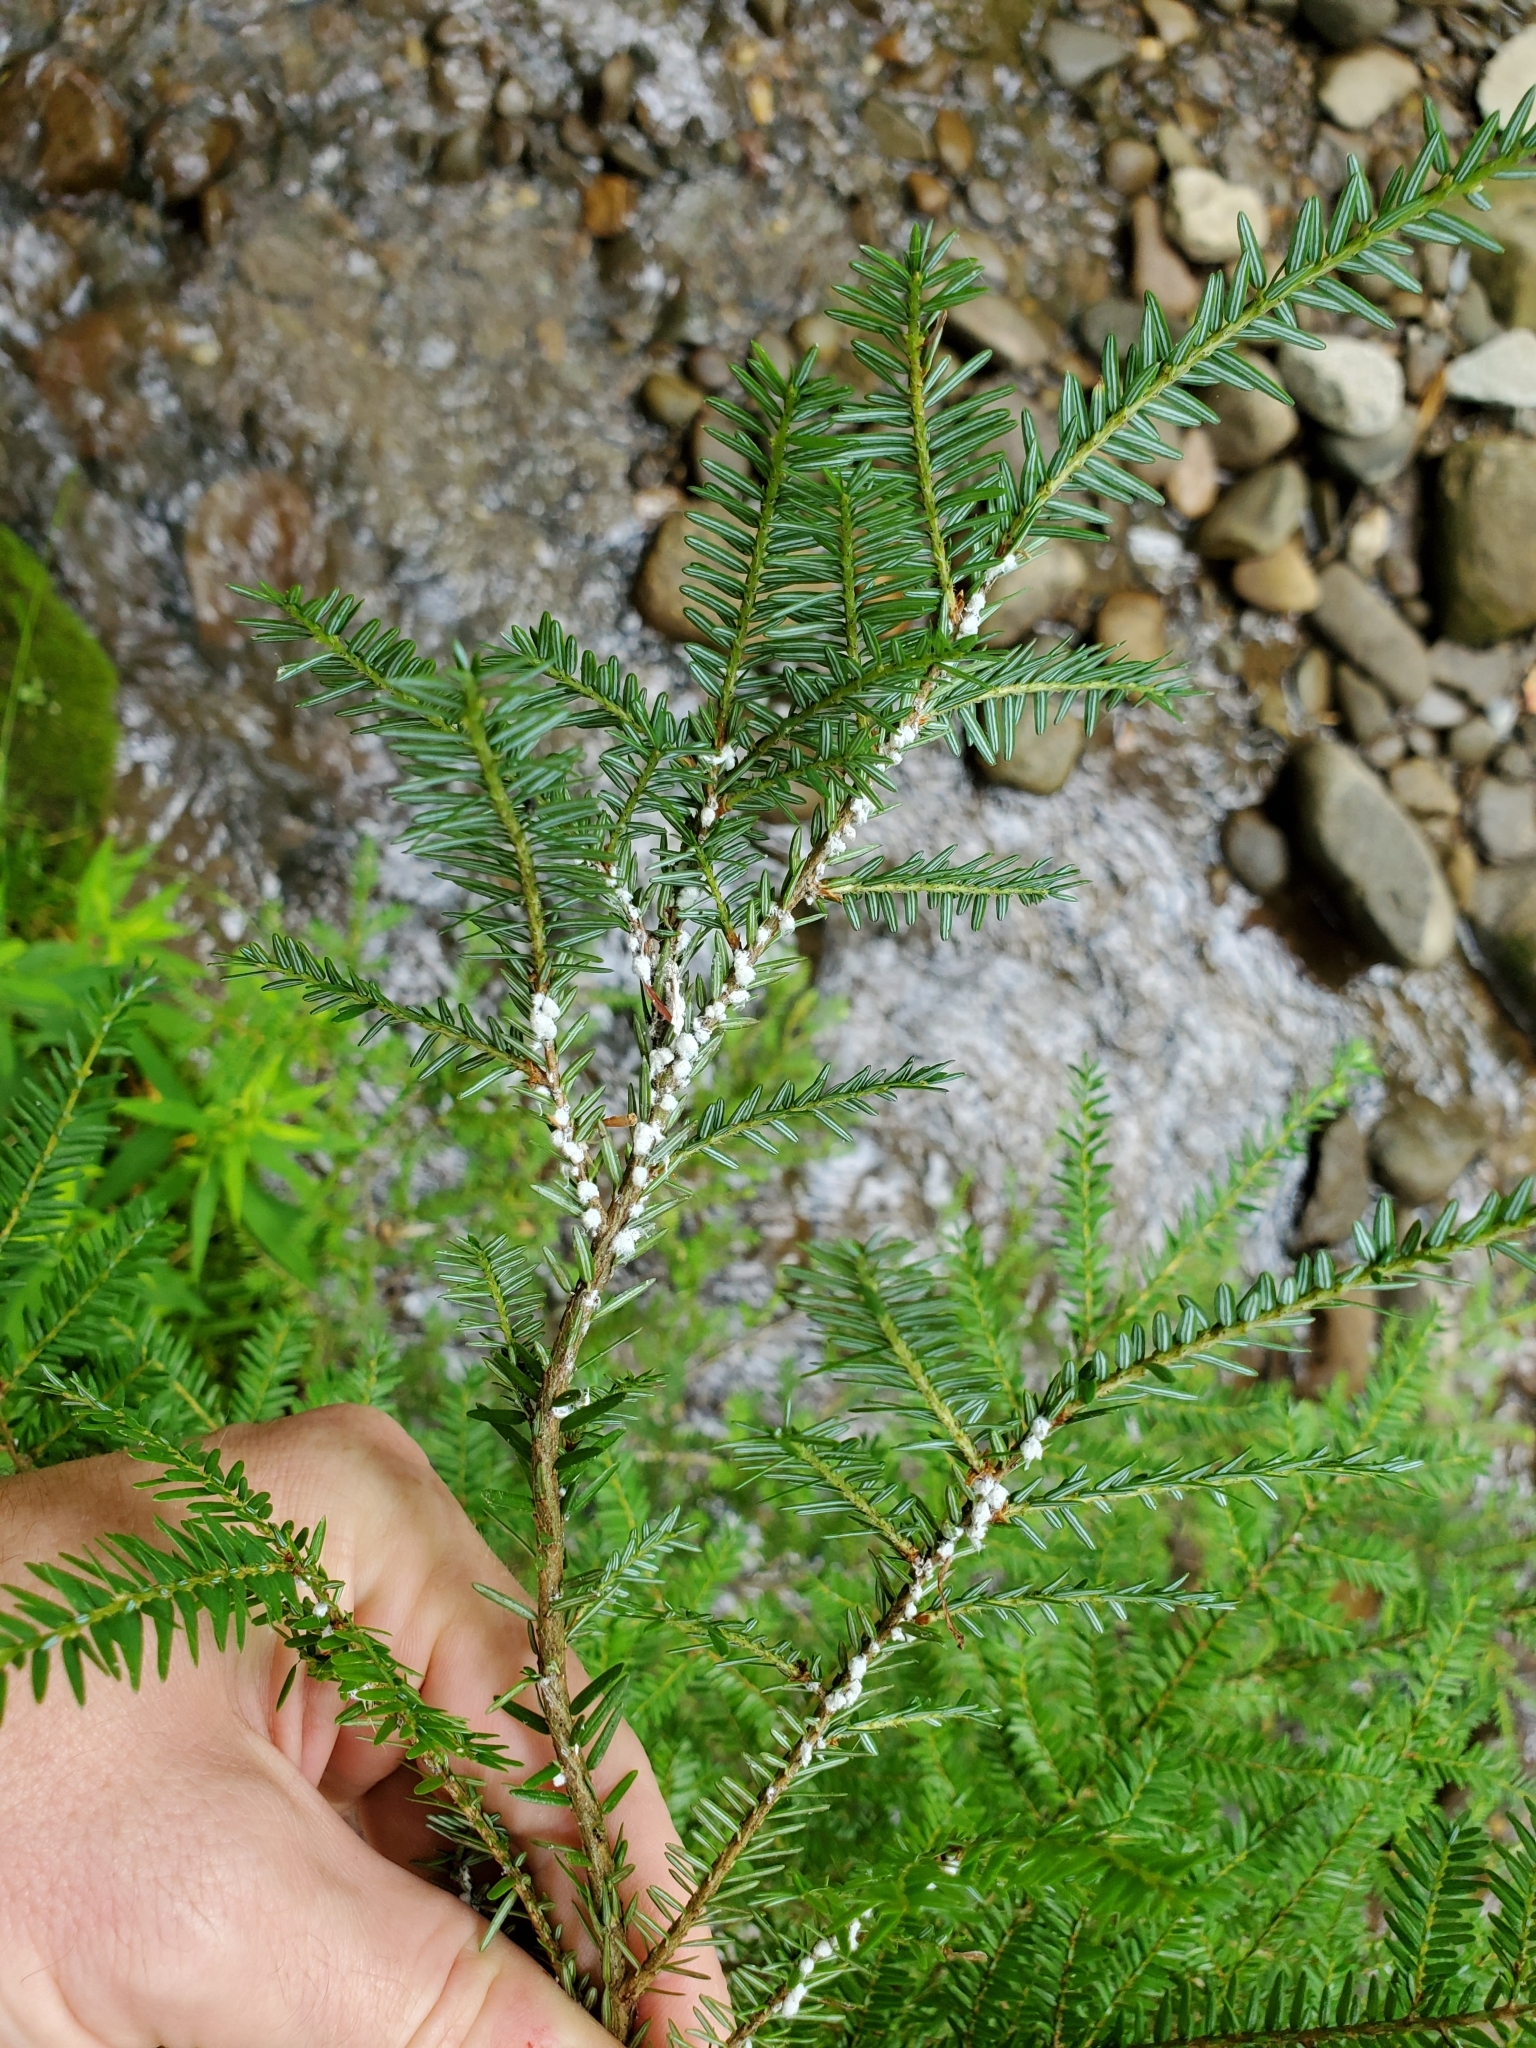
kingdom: Animalia
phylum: Arthropoda
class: Insecta
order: Hemiptera
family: Adelgidae
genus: Adelges
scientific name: Adelges tsugae
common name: Hemlock woolly adelgid
